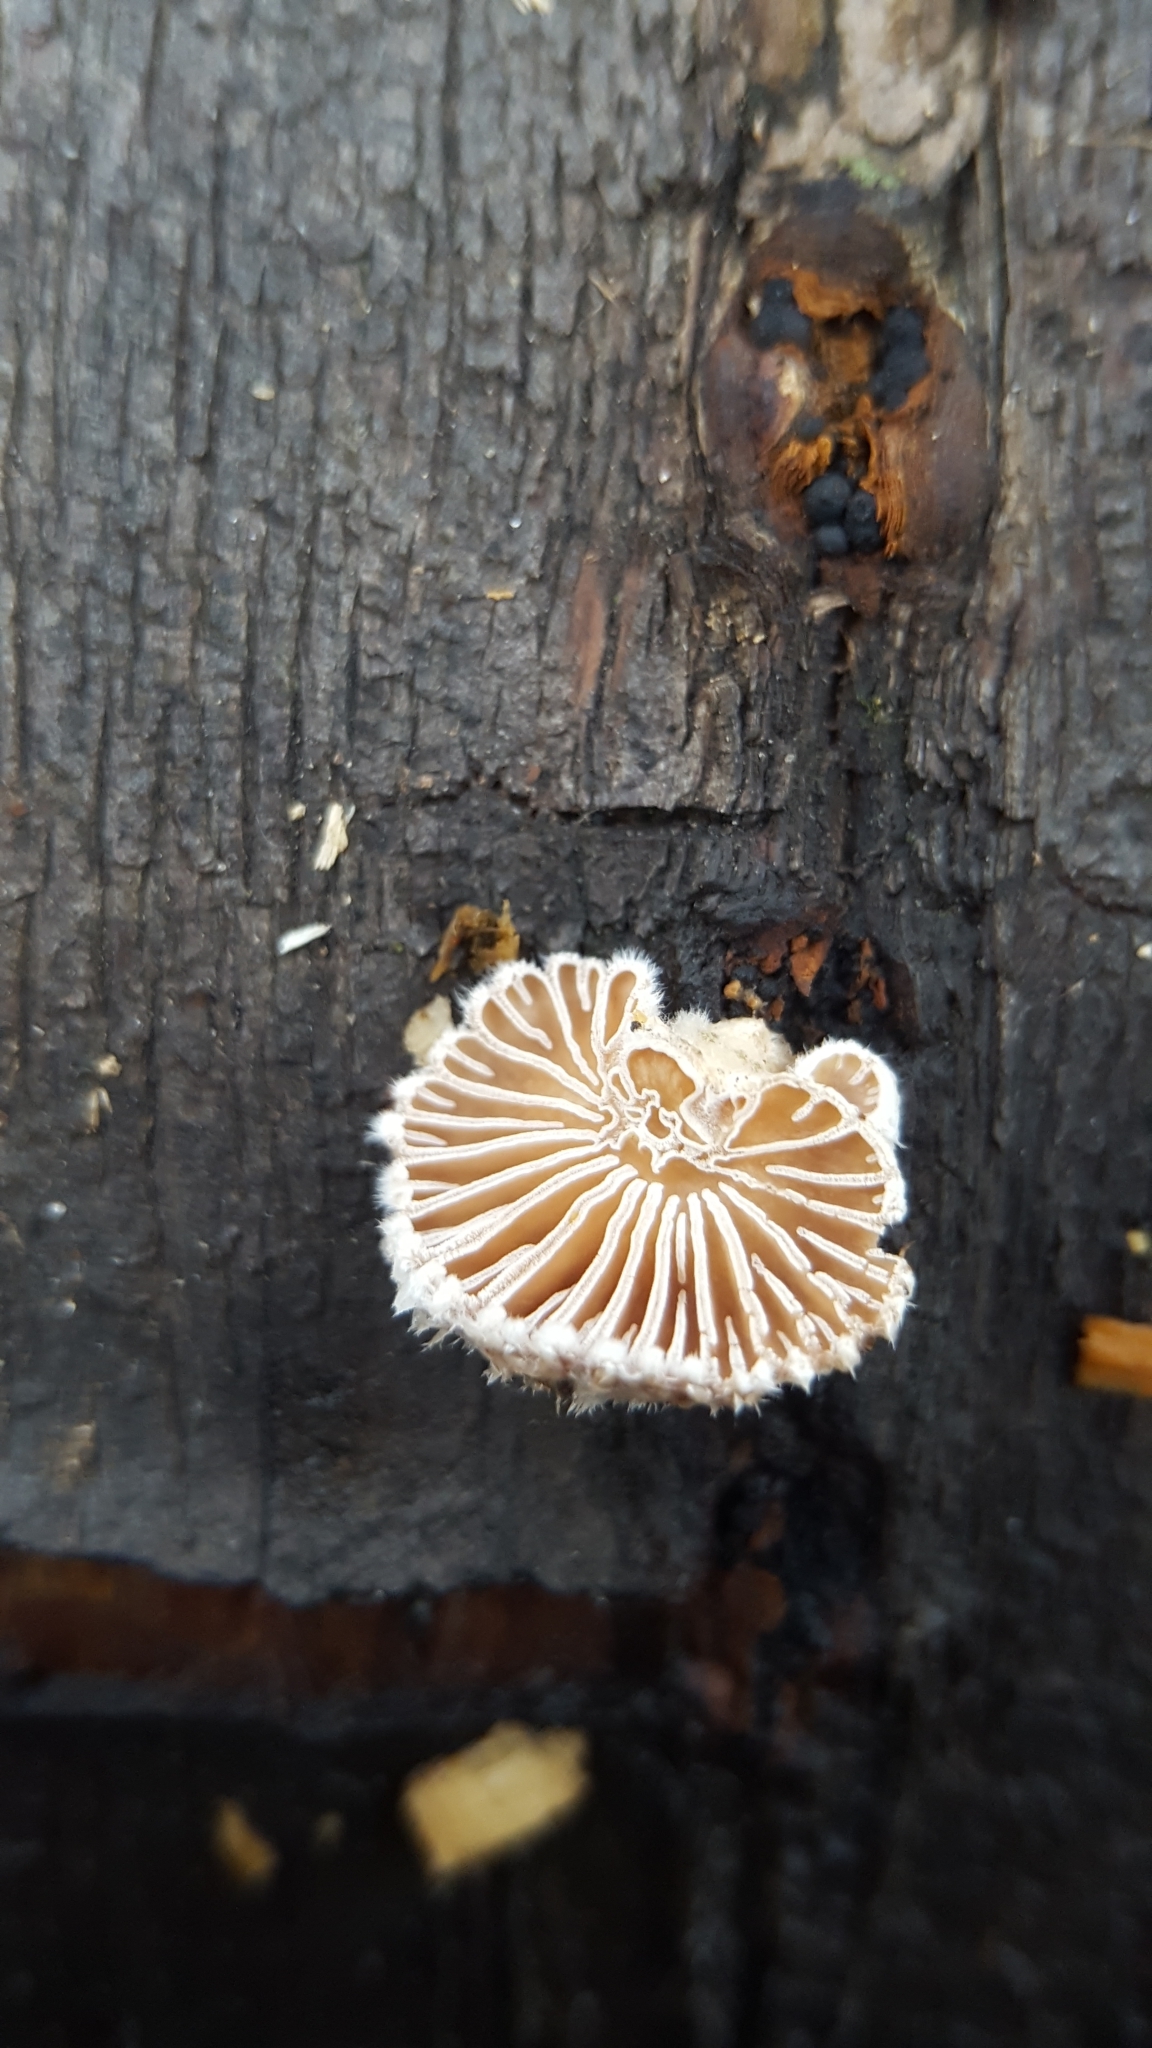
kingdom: Fungi
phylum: Basidiomycota
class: Agaricomycetes
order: Agaricales
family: Schizophyllaceae
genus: Schizophyllum
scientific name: Schizophyllum commune
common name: Common porecrust
